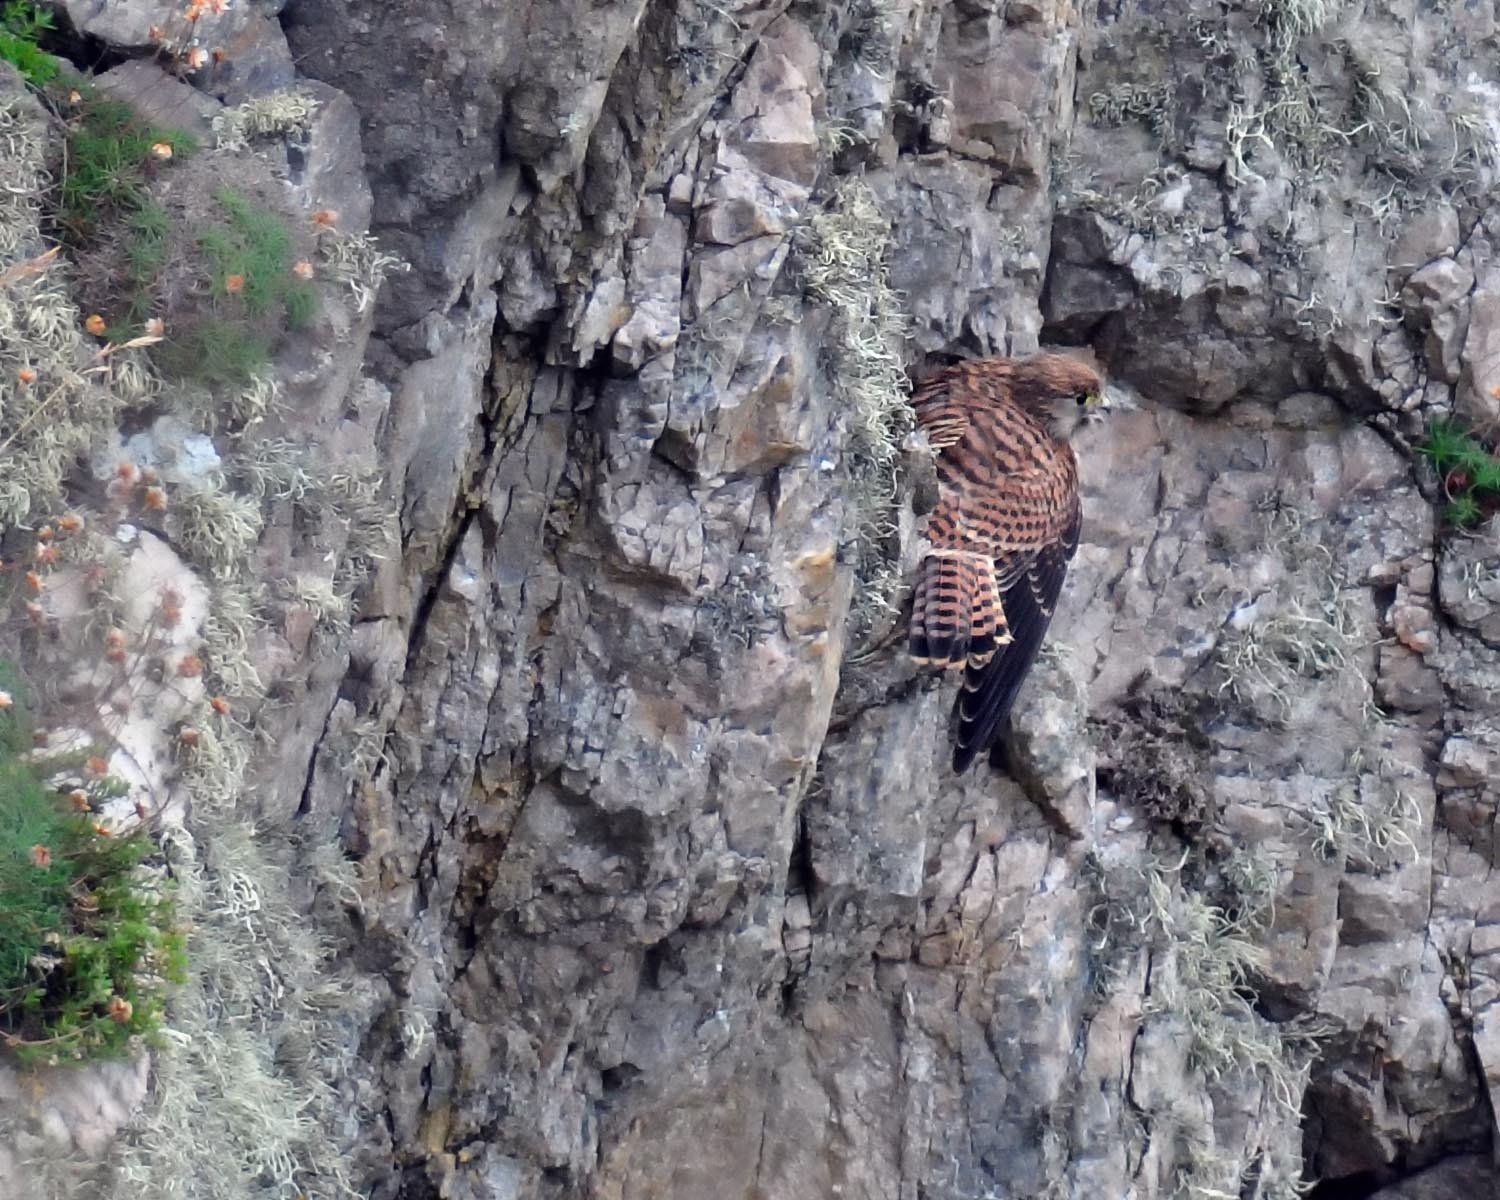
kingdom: Animalia
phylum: Chordata
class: Aves
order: Falconiformes
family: Falconidae
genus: Falco
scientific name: Falco tinnunculus
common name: Common kestrel
